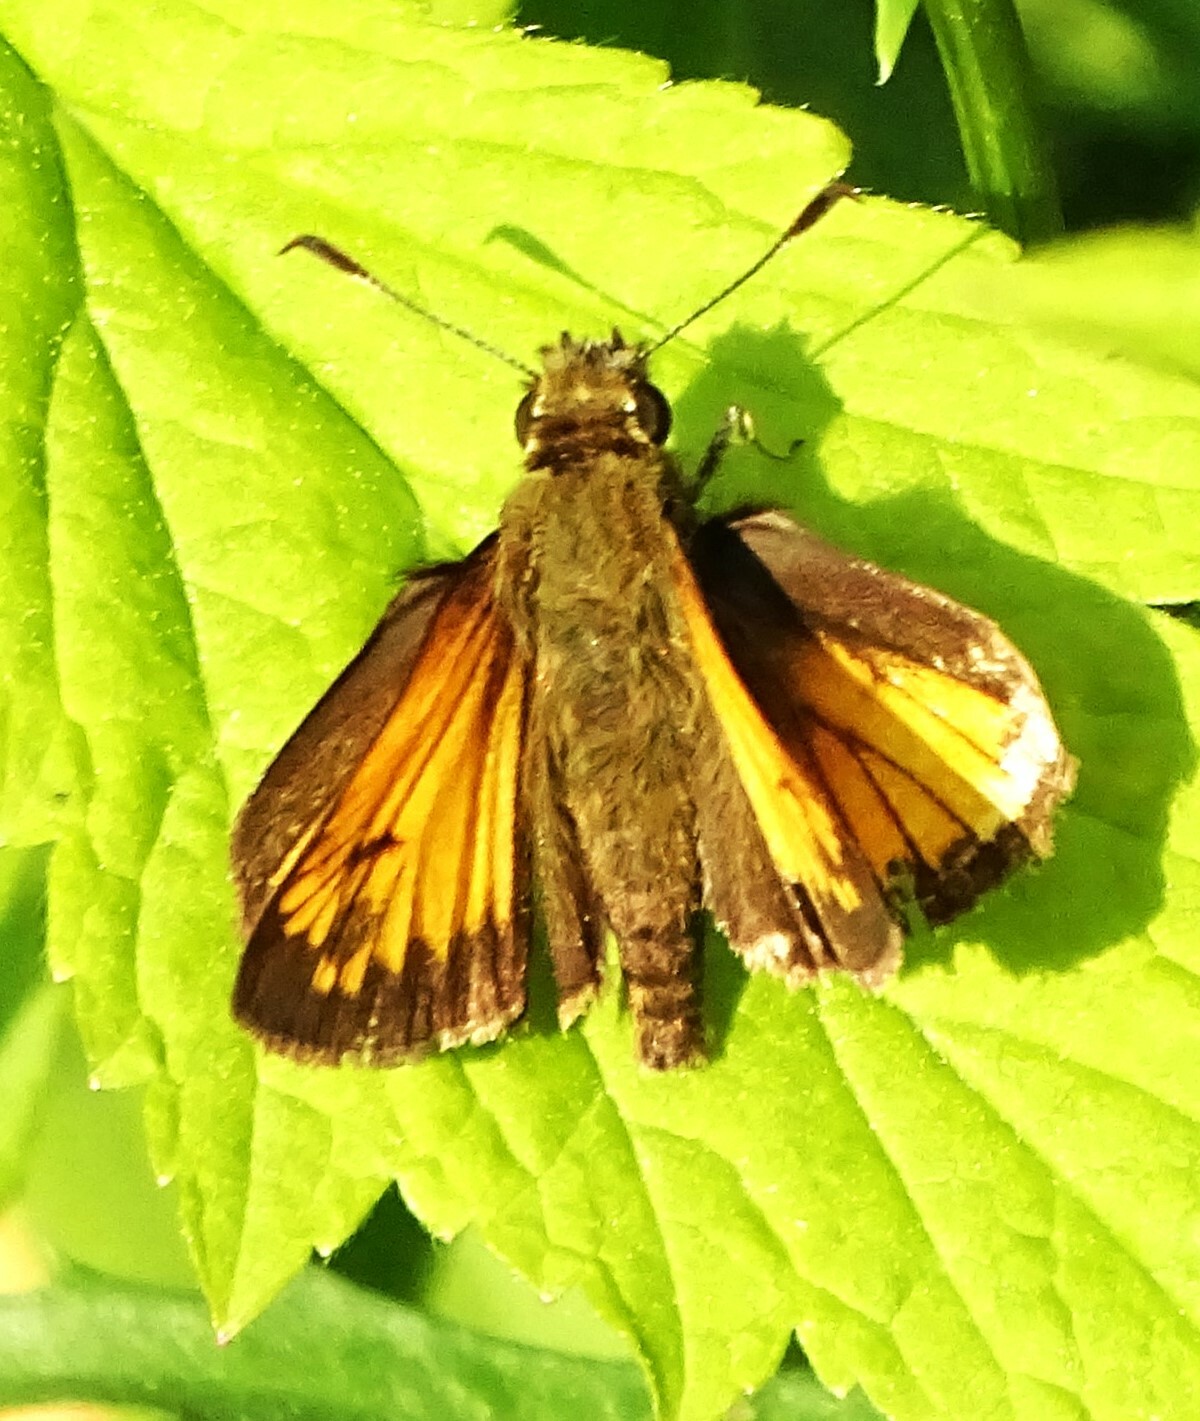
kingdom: Animalia
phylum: Arthropoda
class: Insecta
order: Lepidoptera
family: Hesperiidae
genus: Lon
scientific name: Lon hobomok
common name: Hobomok skipper
